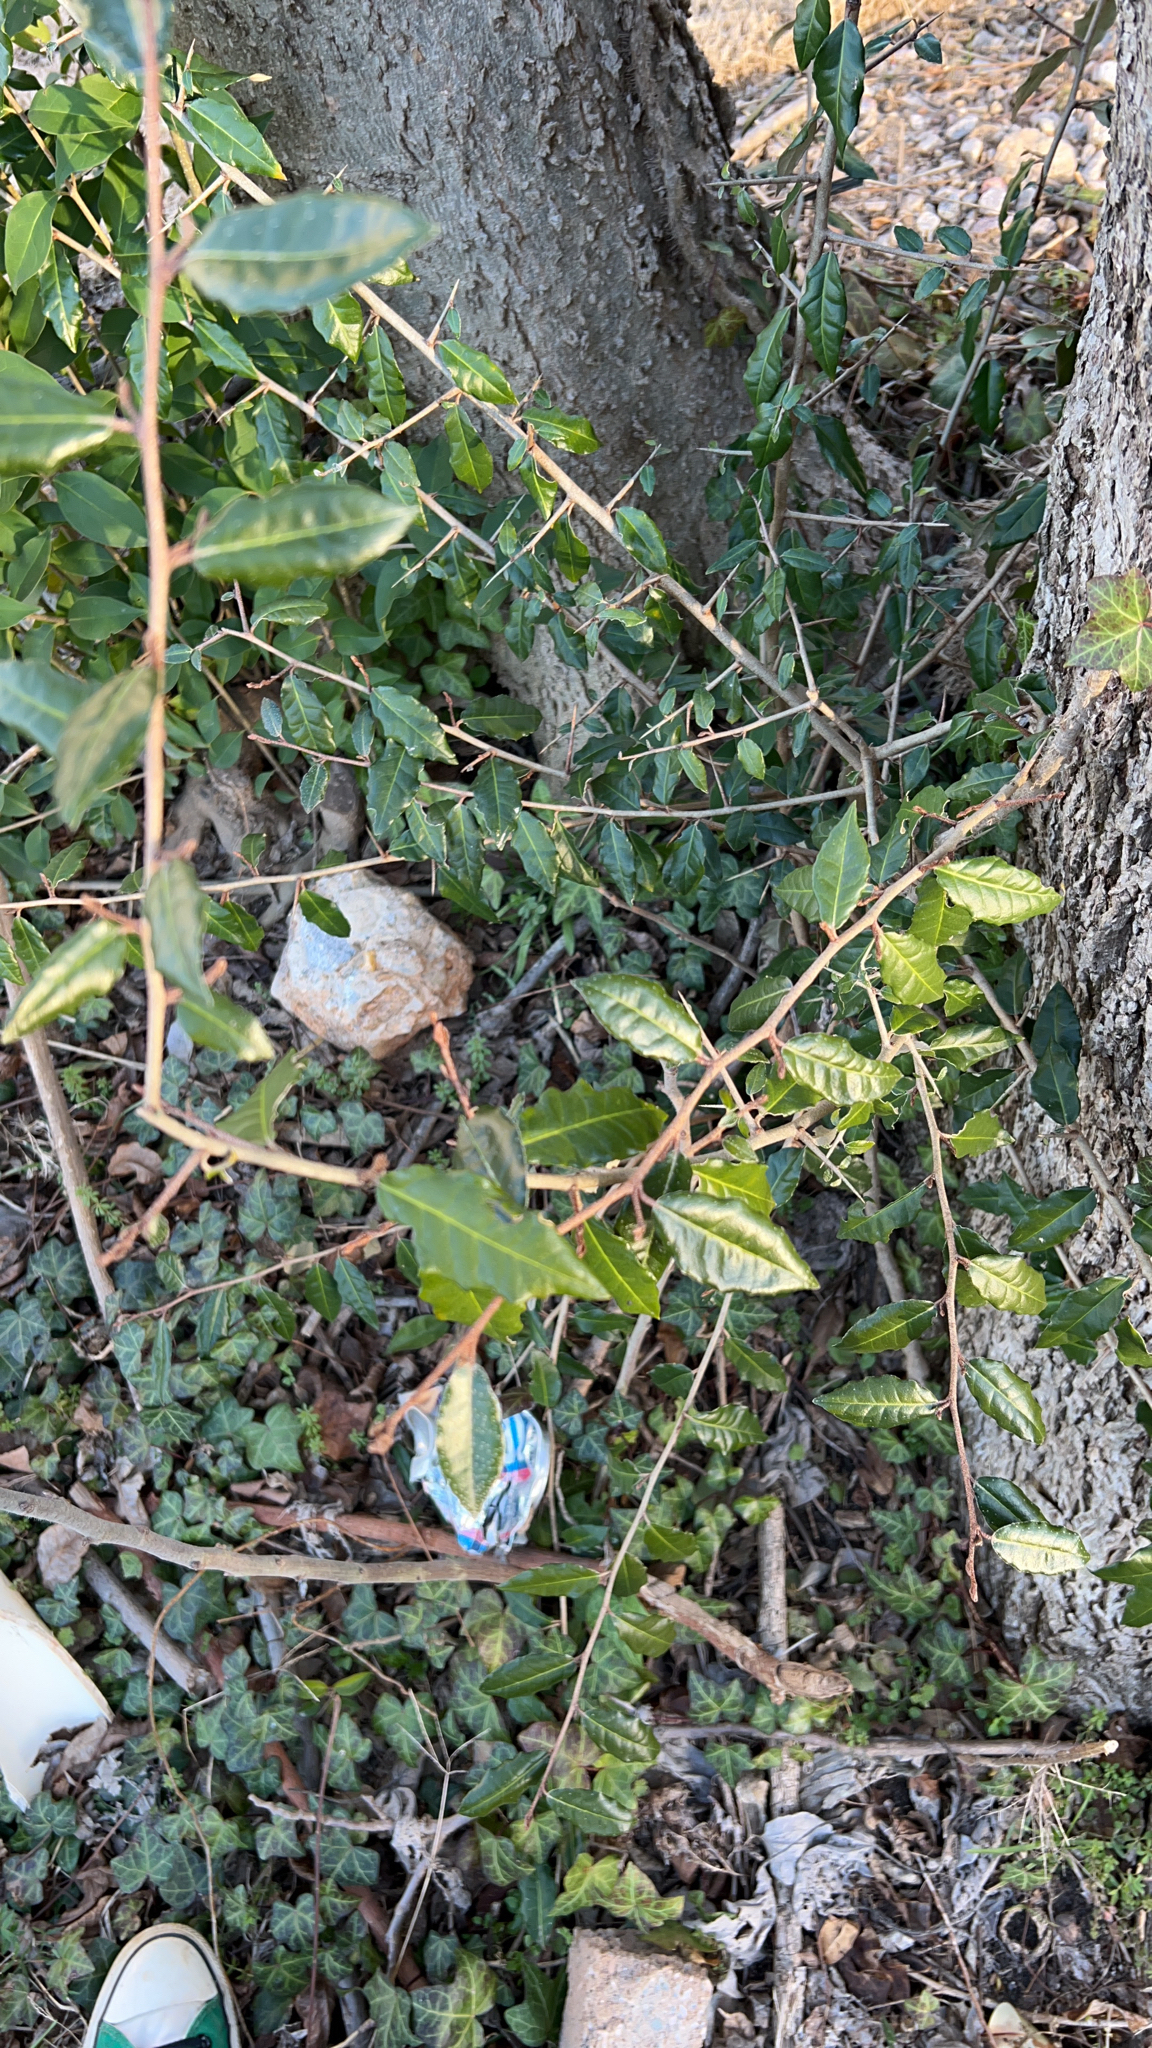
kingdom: Plantae
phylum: Tracheophyta
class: Magnoliopsida
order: Rosales
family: Elaeagnaceae
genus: Elaeagnus
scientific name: Elaeagnus pungens
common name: Spiny oleaster
